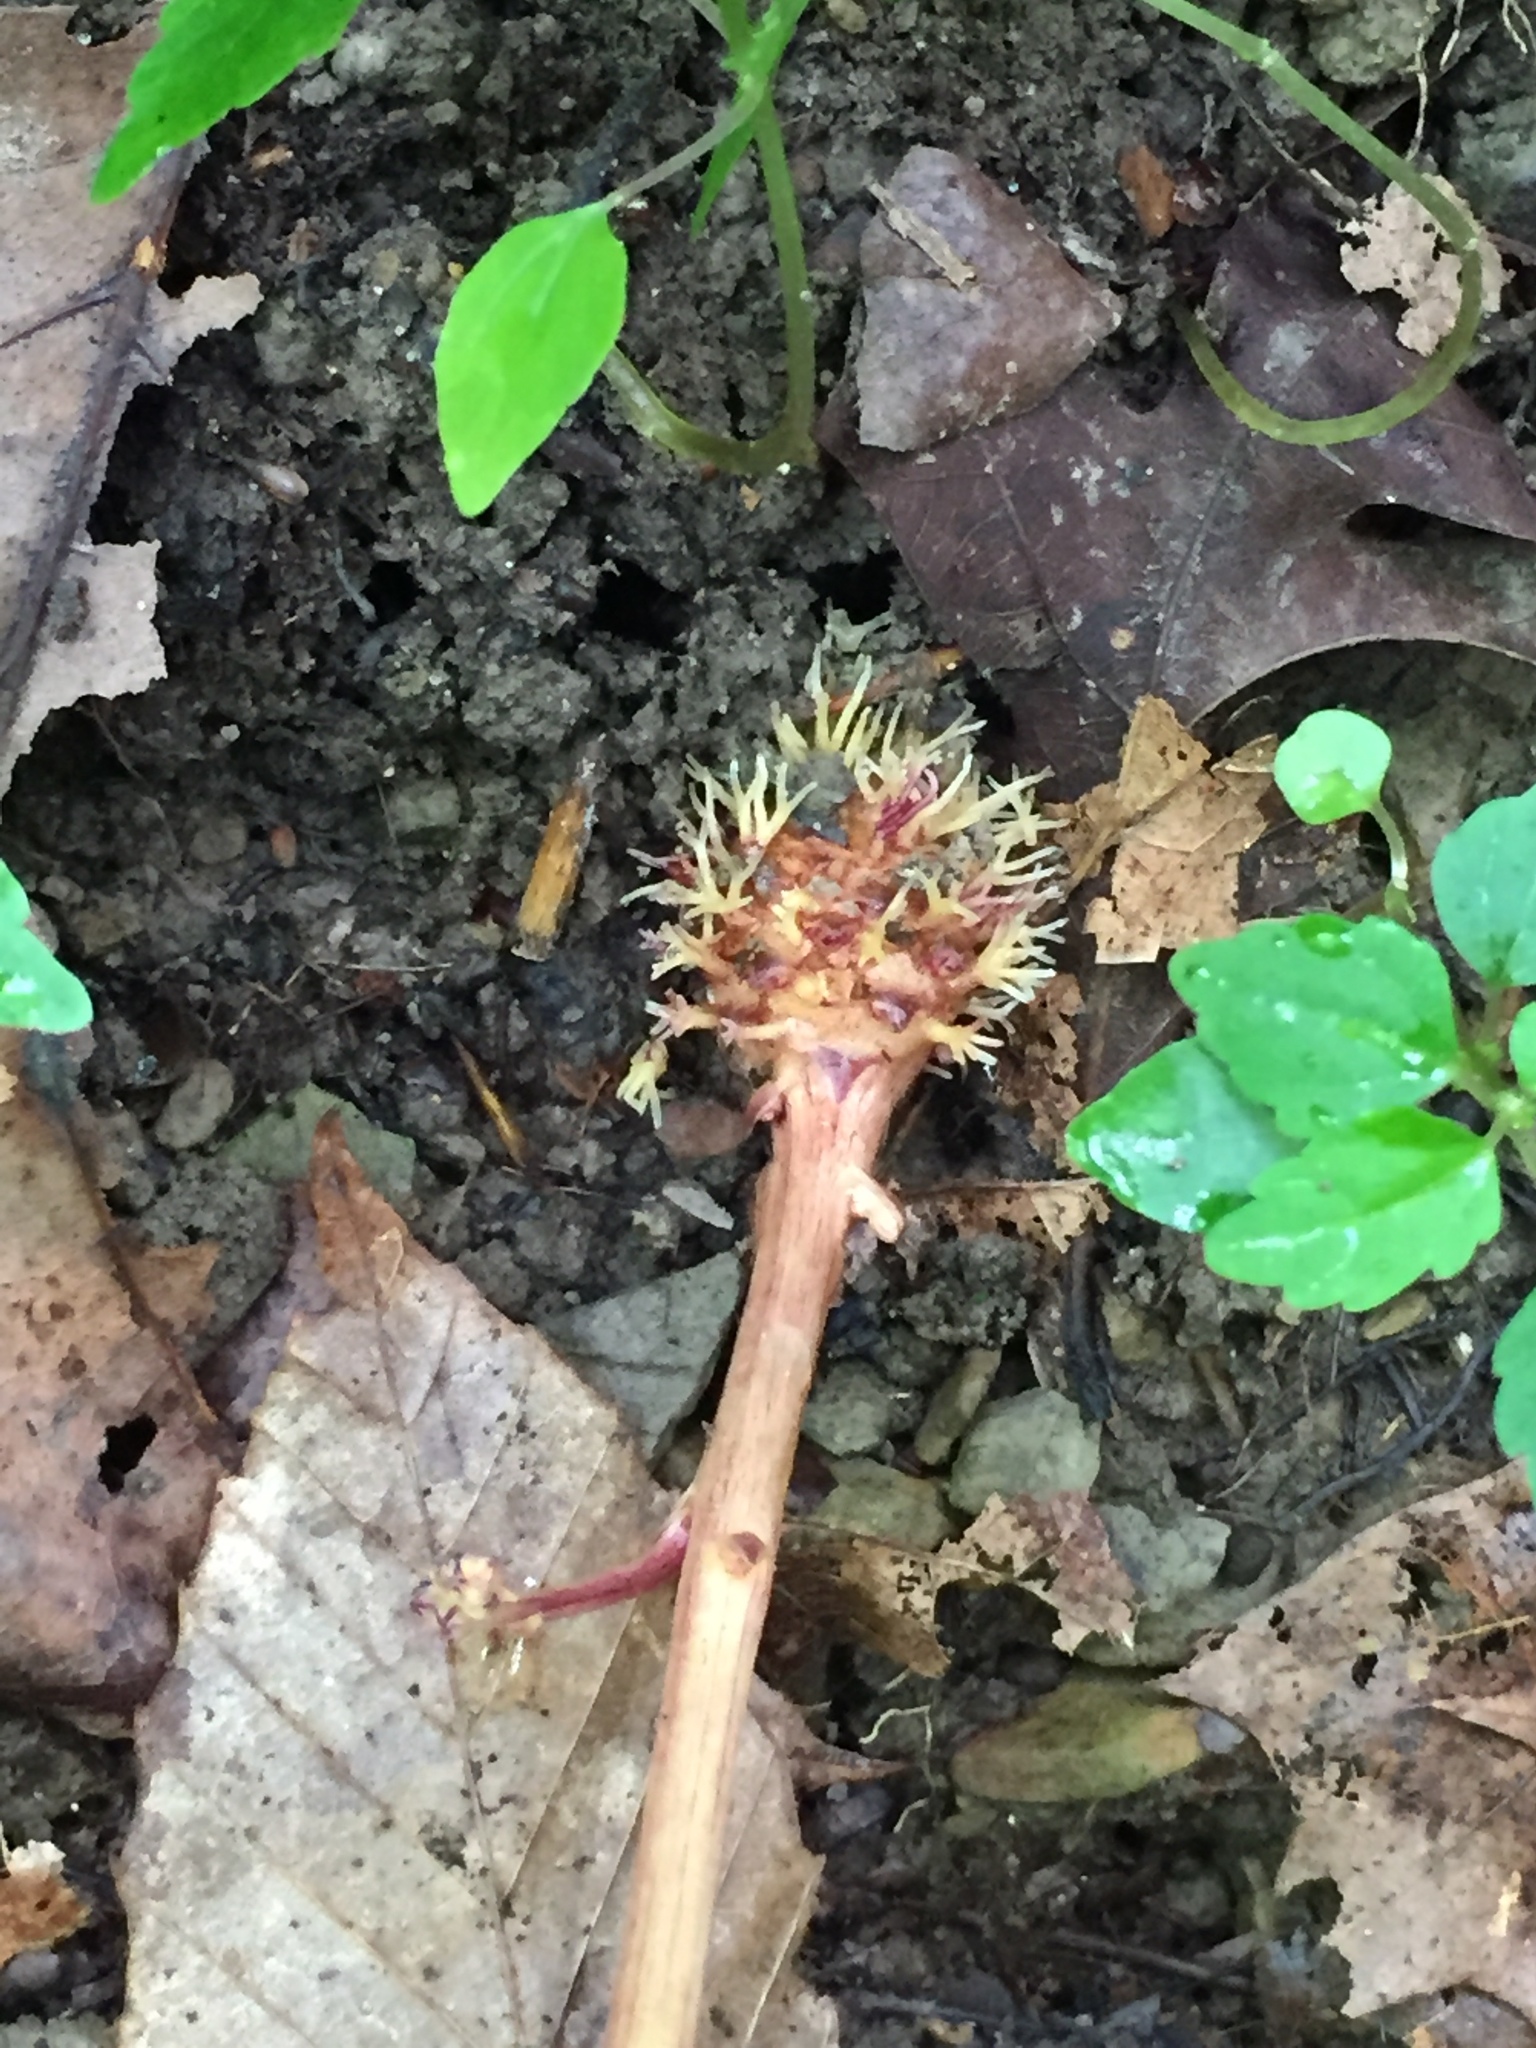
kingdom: Plantae
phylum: Tracheophyta
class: Magnoliopsida
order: Lamiales
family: Orobanchaceae
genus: Epifagus
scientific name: Epifagus virginiana
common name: Beechdrops
